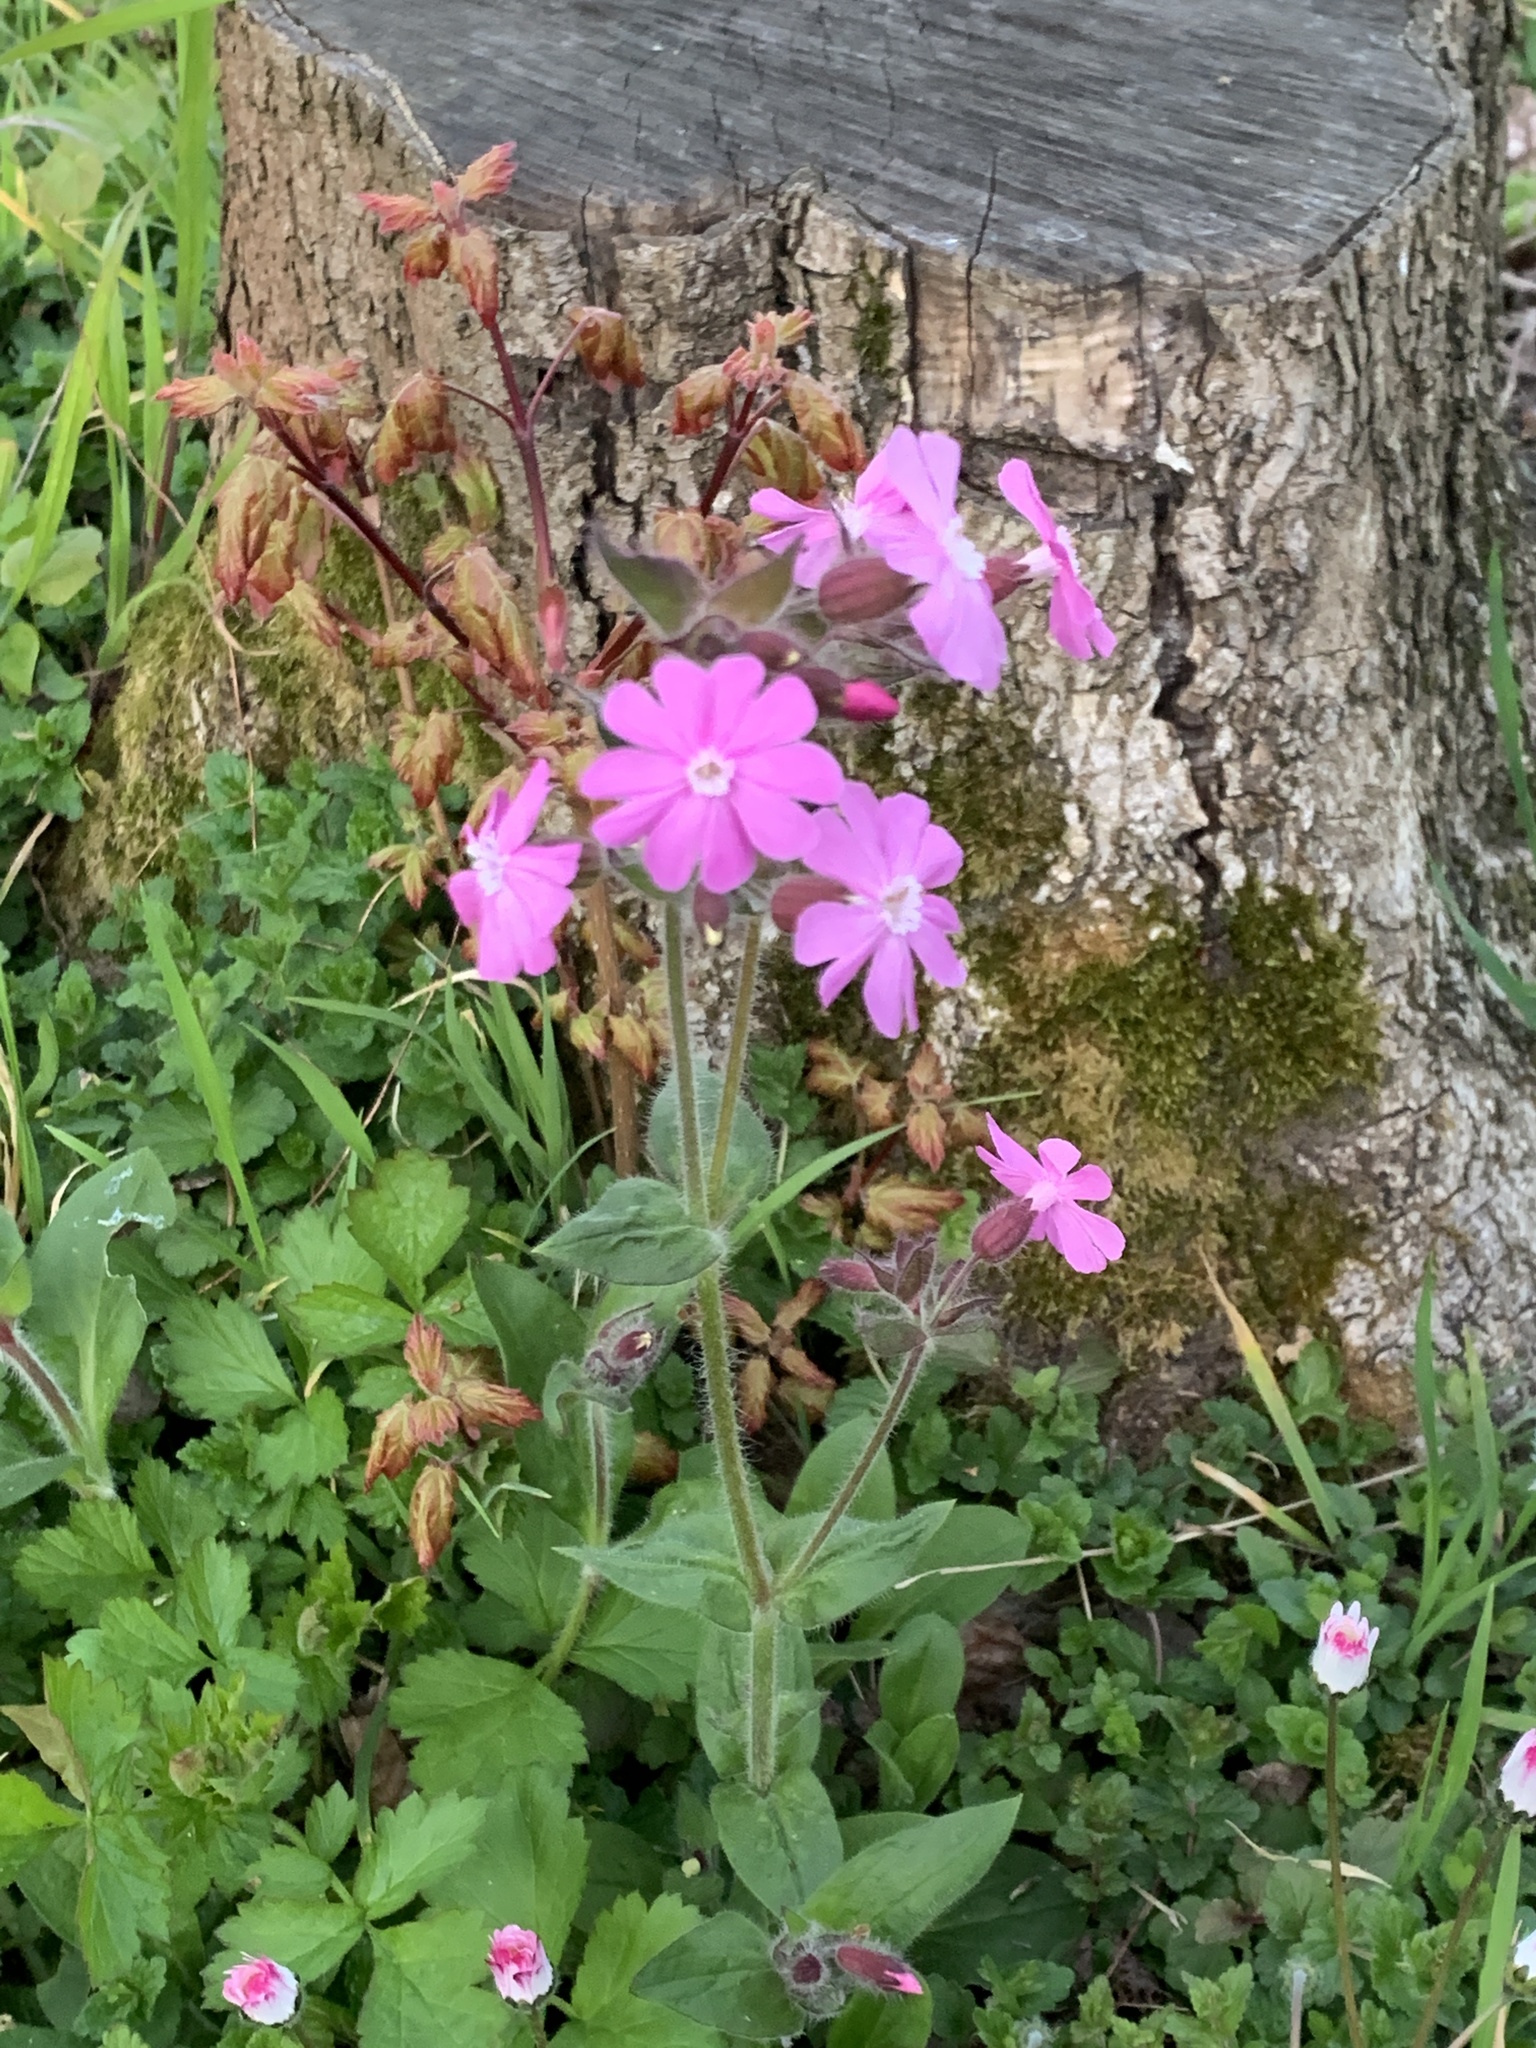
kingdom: Plantae
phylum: Tracheophyta
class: Magnoliopsida
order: Caryophyllales
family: Caryophyllaceae
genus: Silene
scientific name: Silene dioica
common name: Red campion
